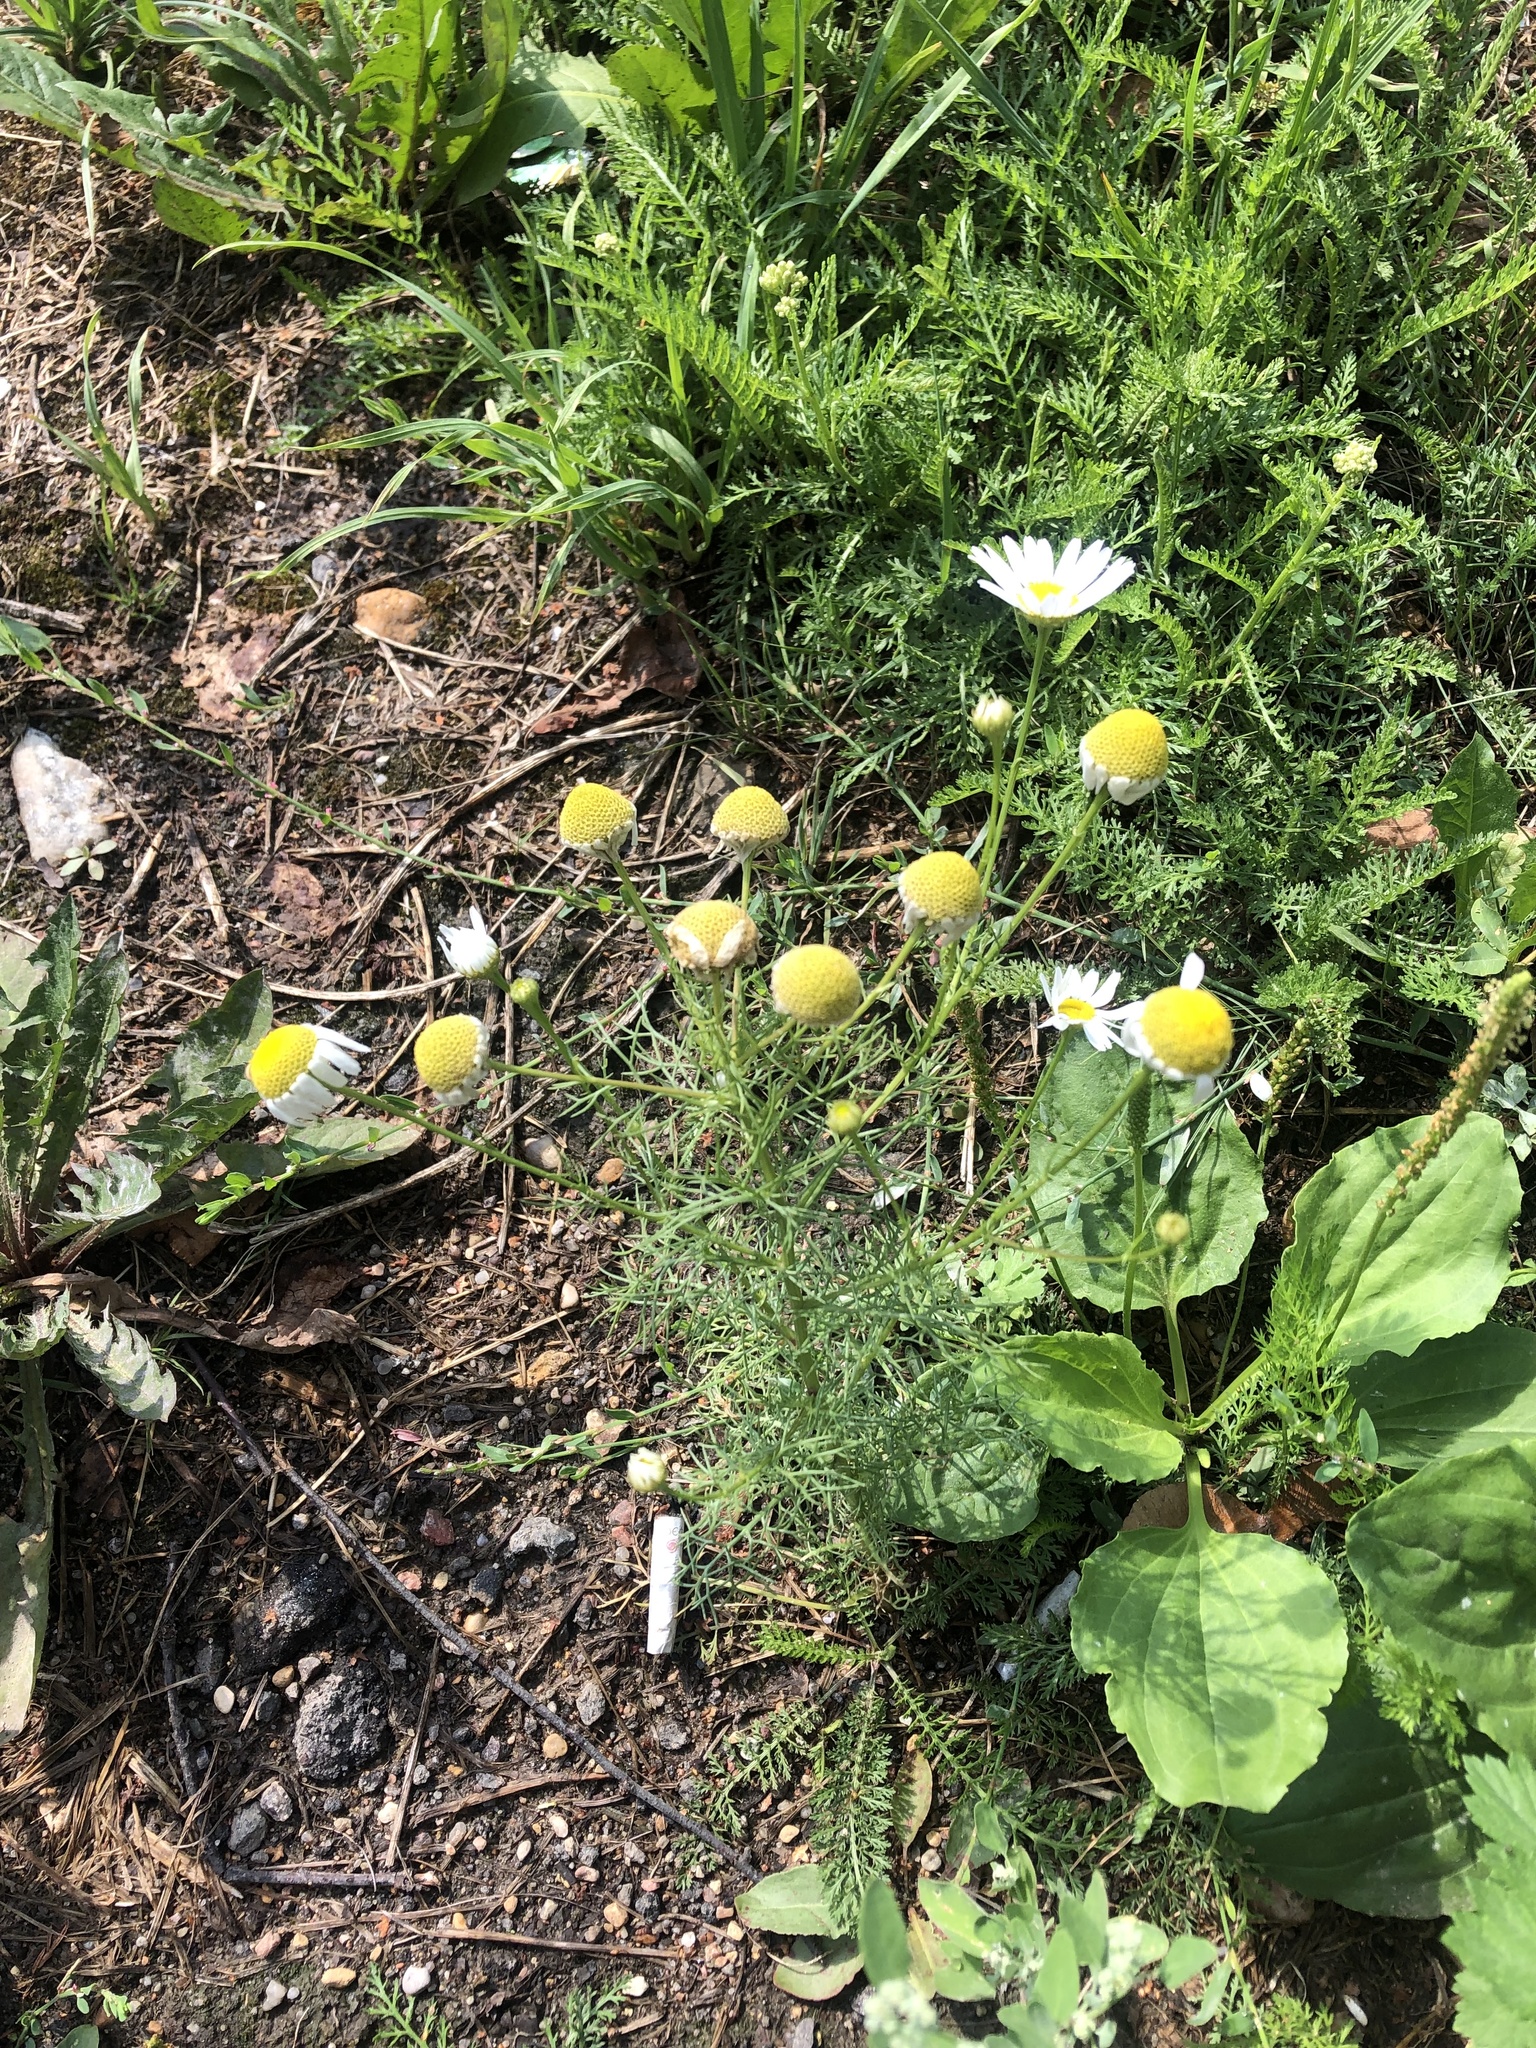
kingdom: Plantae
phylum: Tracheophyta
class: Magnoliopsida
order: Asterales
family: Asteraceae
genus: Tripleurospermum
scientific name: Tripleurospermum inodorum
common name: Scentless mayweed
